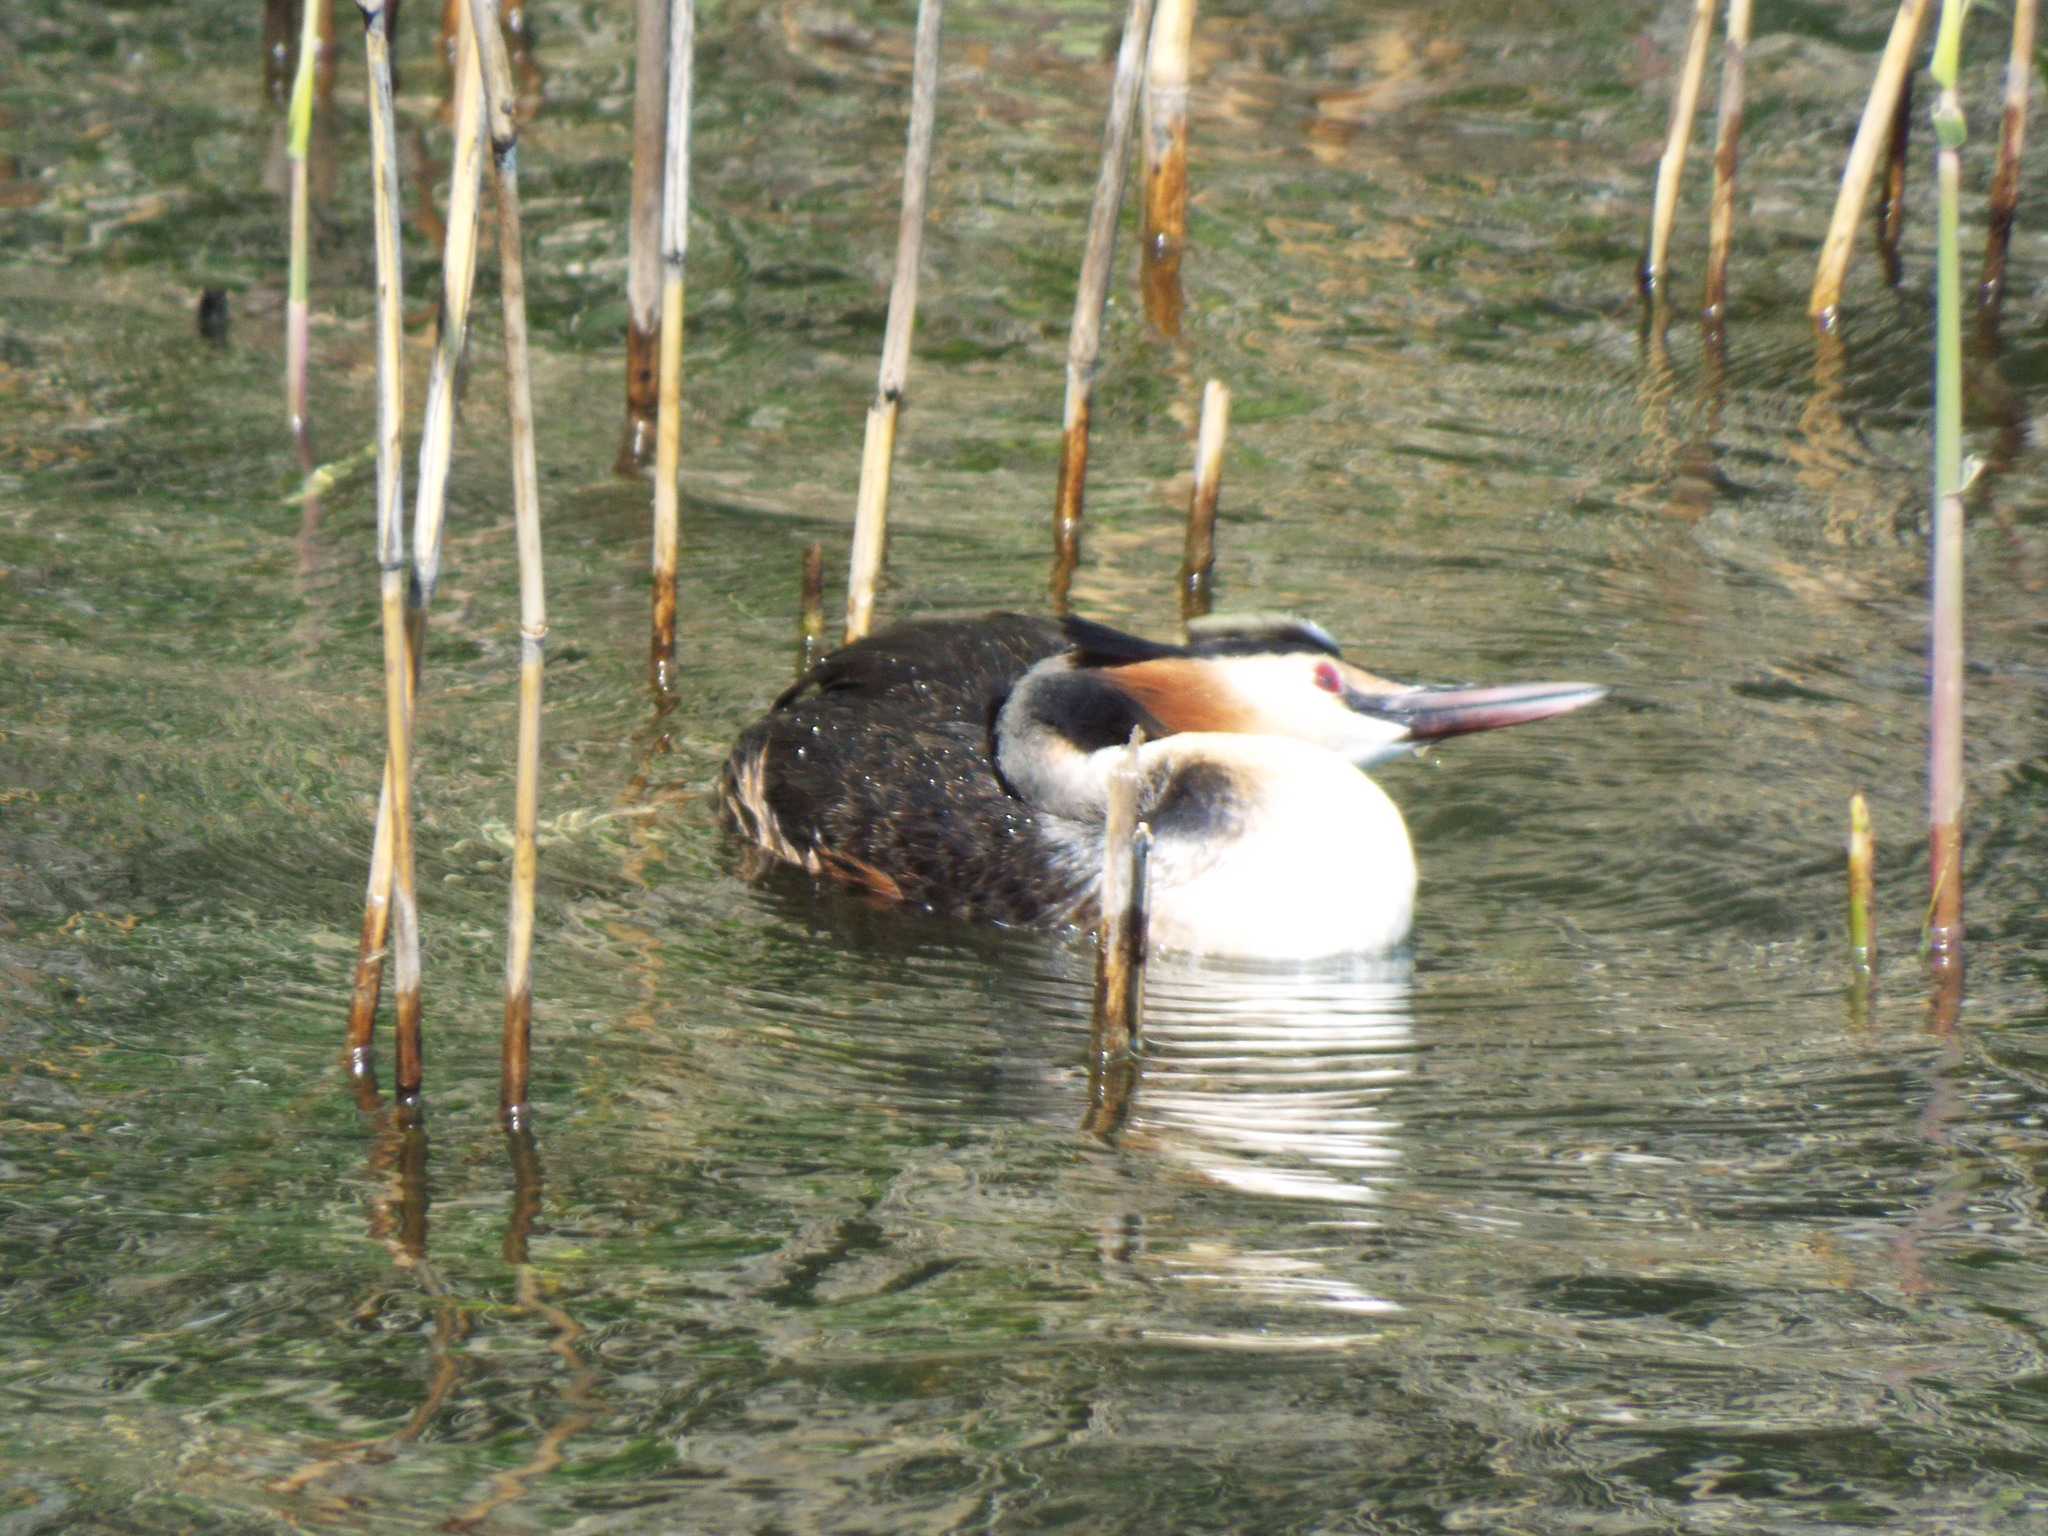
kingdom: Animalia
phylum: Chordata
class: Aves
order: Podicipediformes
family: Podicipedidae
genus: Podiceps
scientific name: Podiceps cristatus
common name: Great crested grebe
